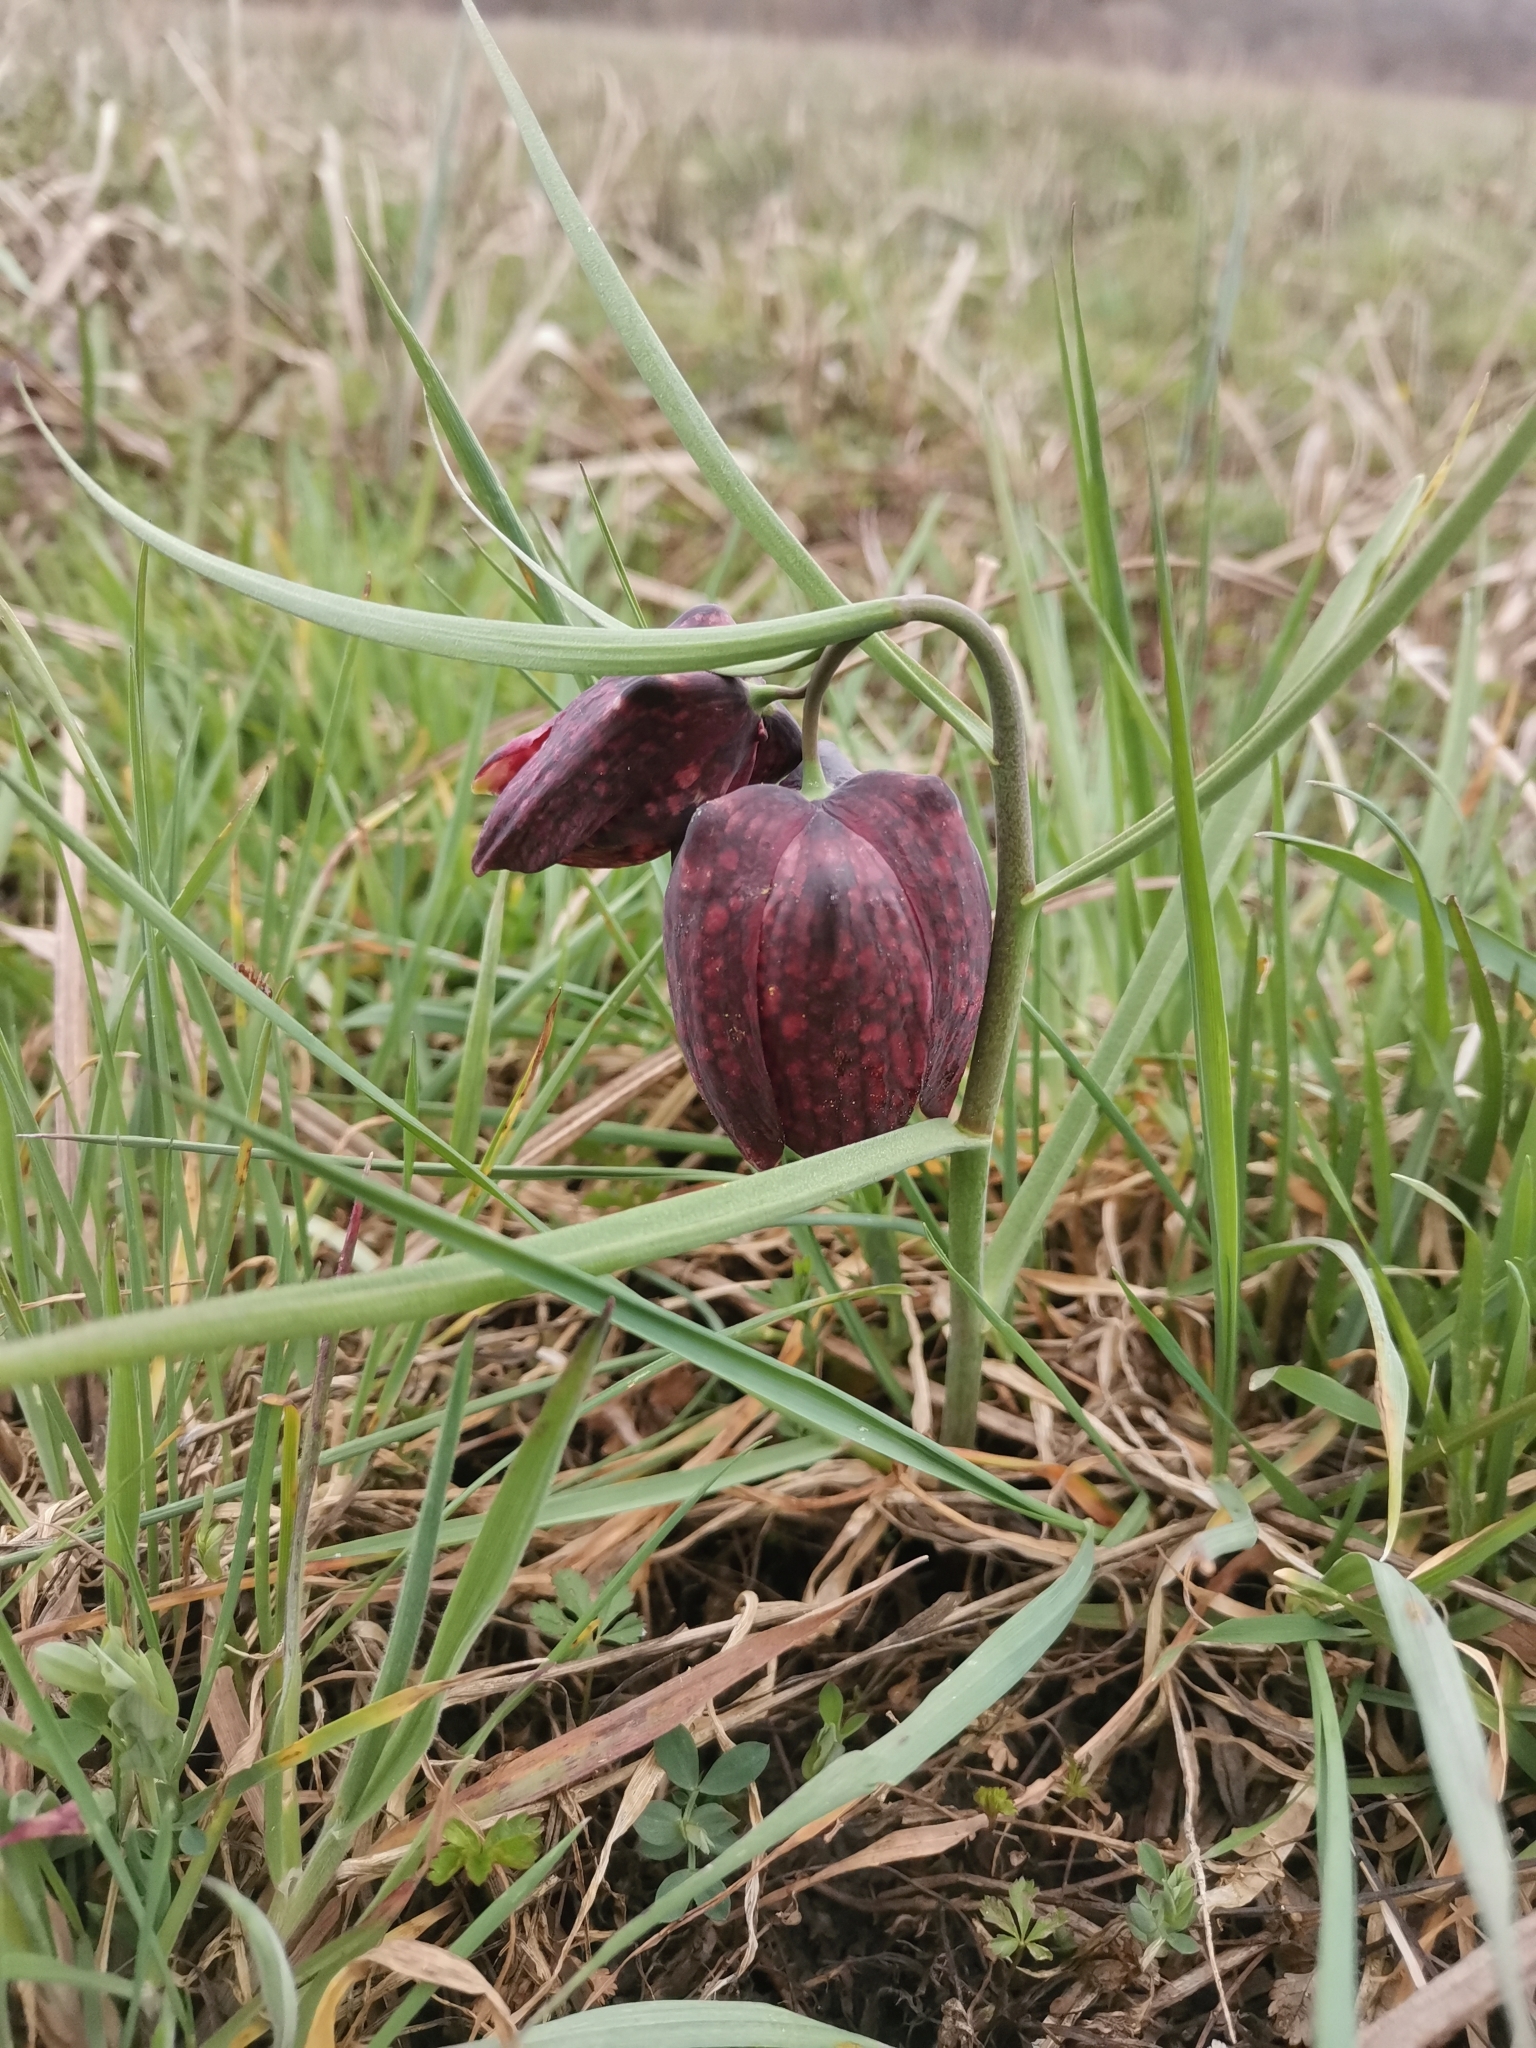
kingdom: Plantae
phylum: Tracheophyta
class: Liliopsida
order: Liliales
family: Liliaceae
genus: Fritillaria
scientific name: Fritillaria meleagris
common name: Fritillary
